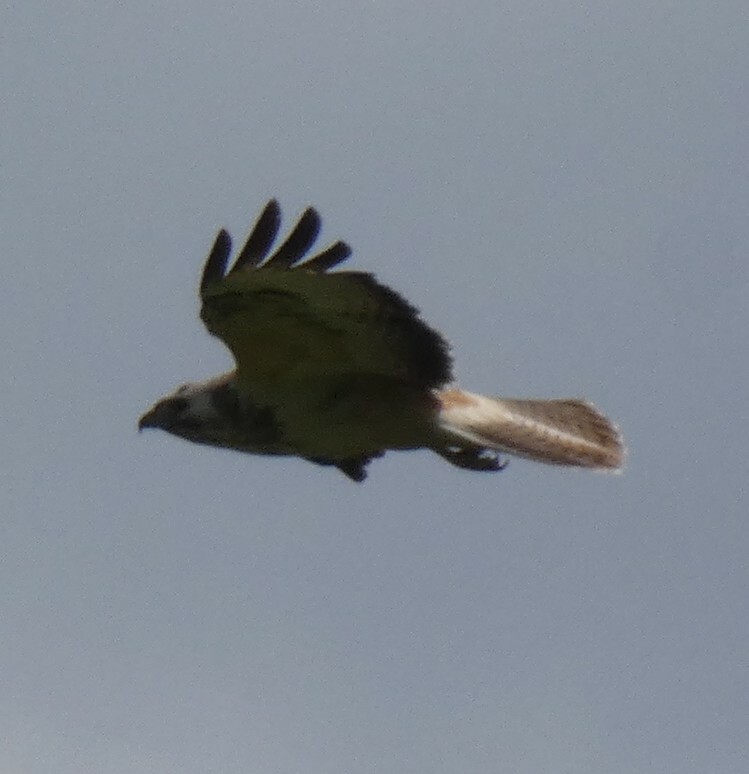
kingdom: Animalia
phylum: Chordata
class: Aves
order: Accipitriformes
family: Accipitridae
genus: Buteo
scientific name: Buteo buteo
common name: Common buzzard
